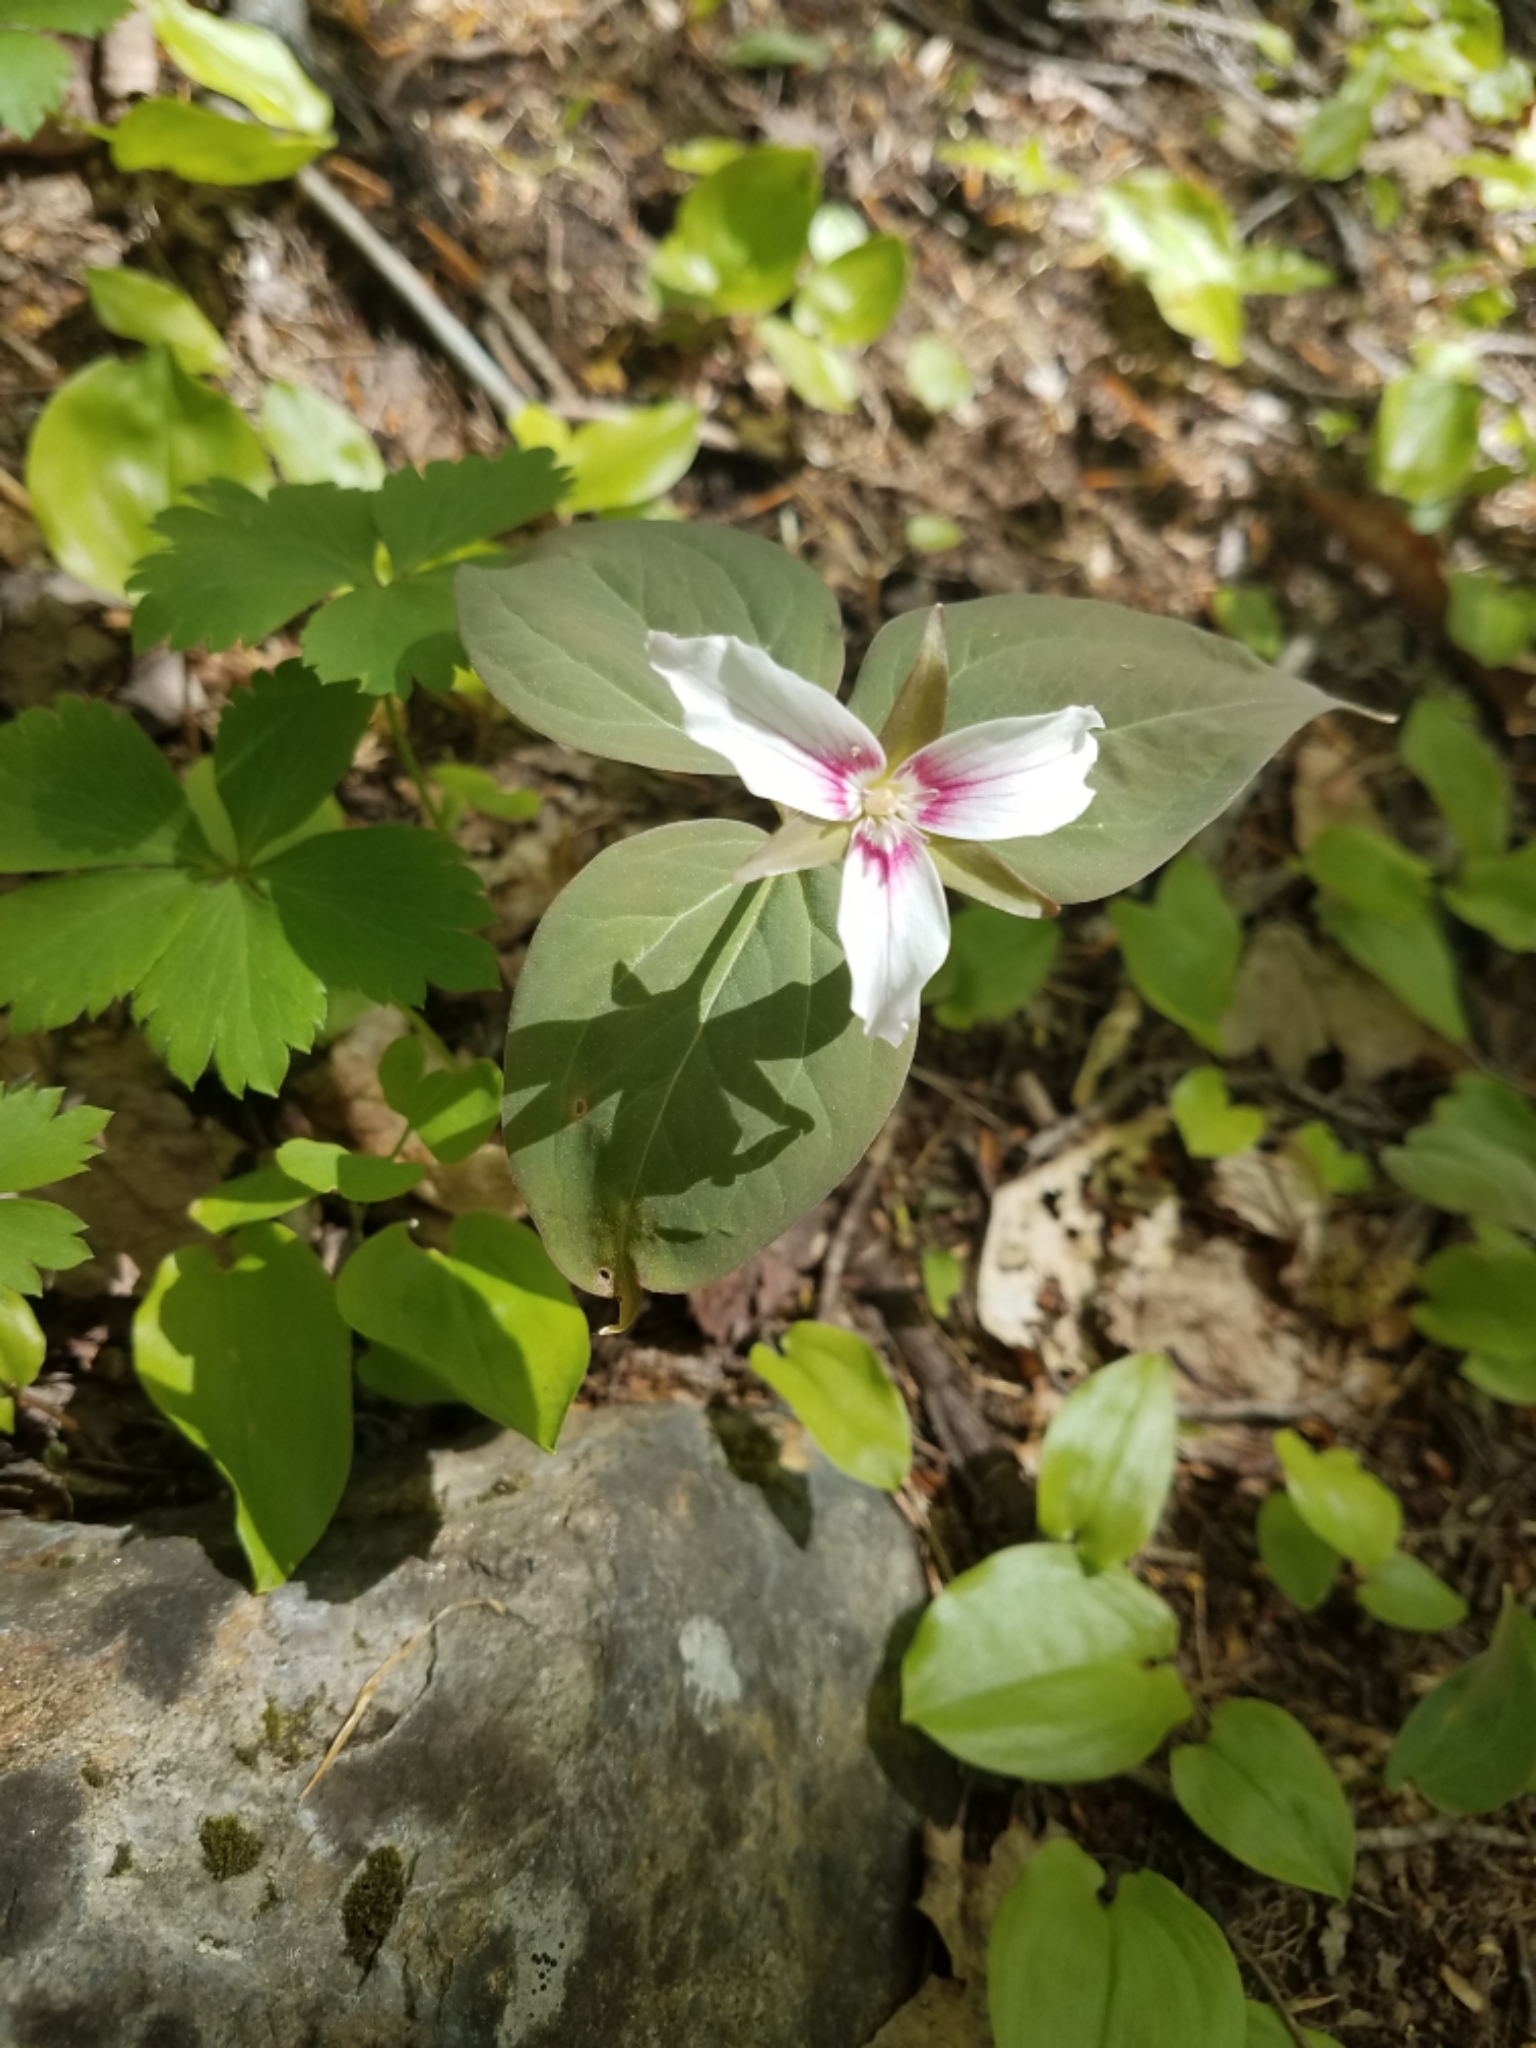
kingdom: Plantae
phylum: Tracheophyta
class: Liliopsida
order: Liliales
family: Melanthiaceae
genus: Trillium
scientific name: Trillium undulatum
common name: Paint trillium
